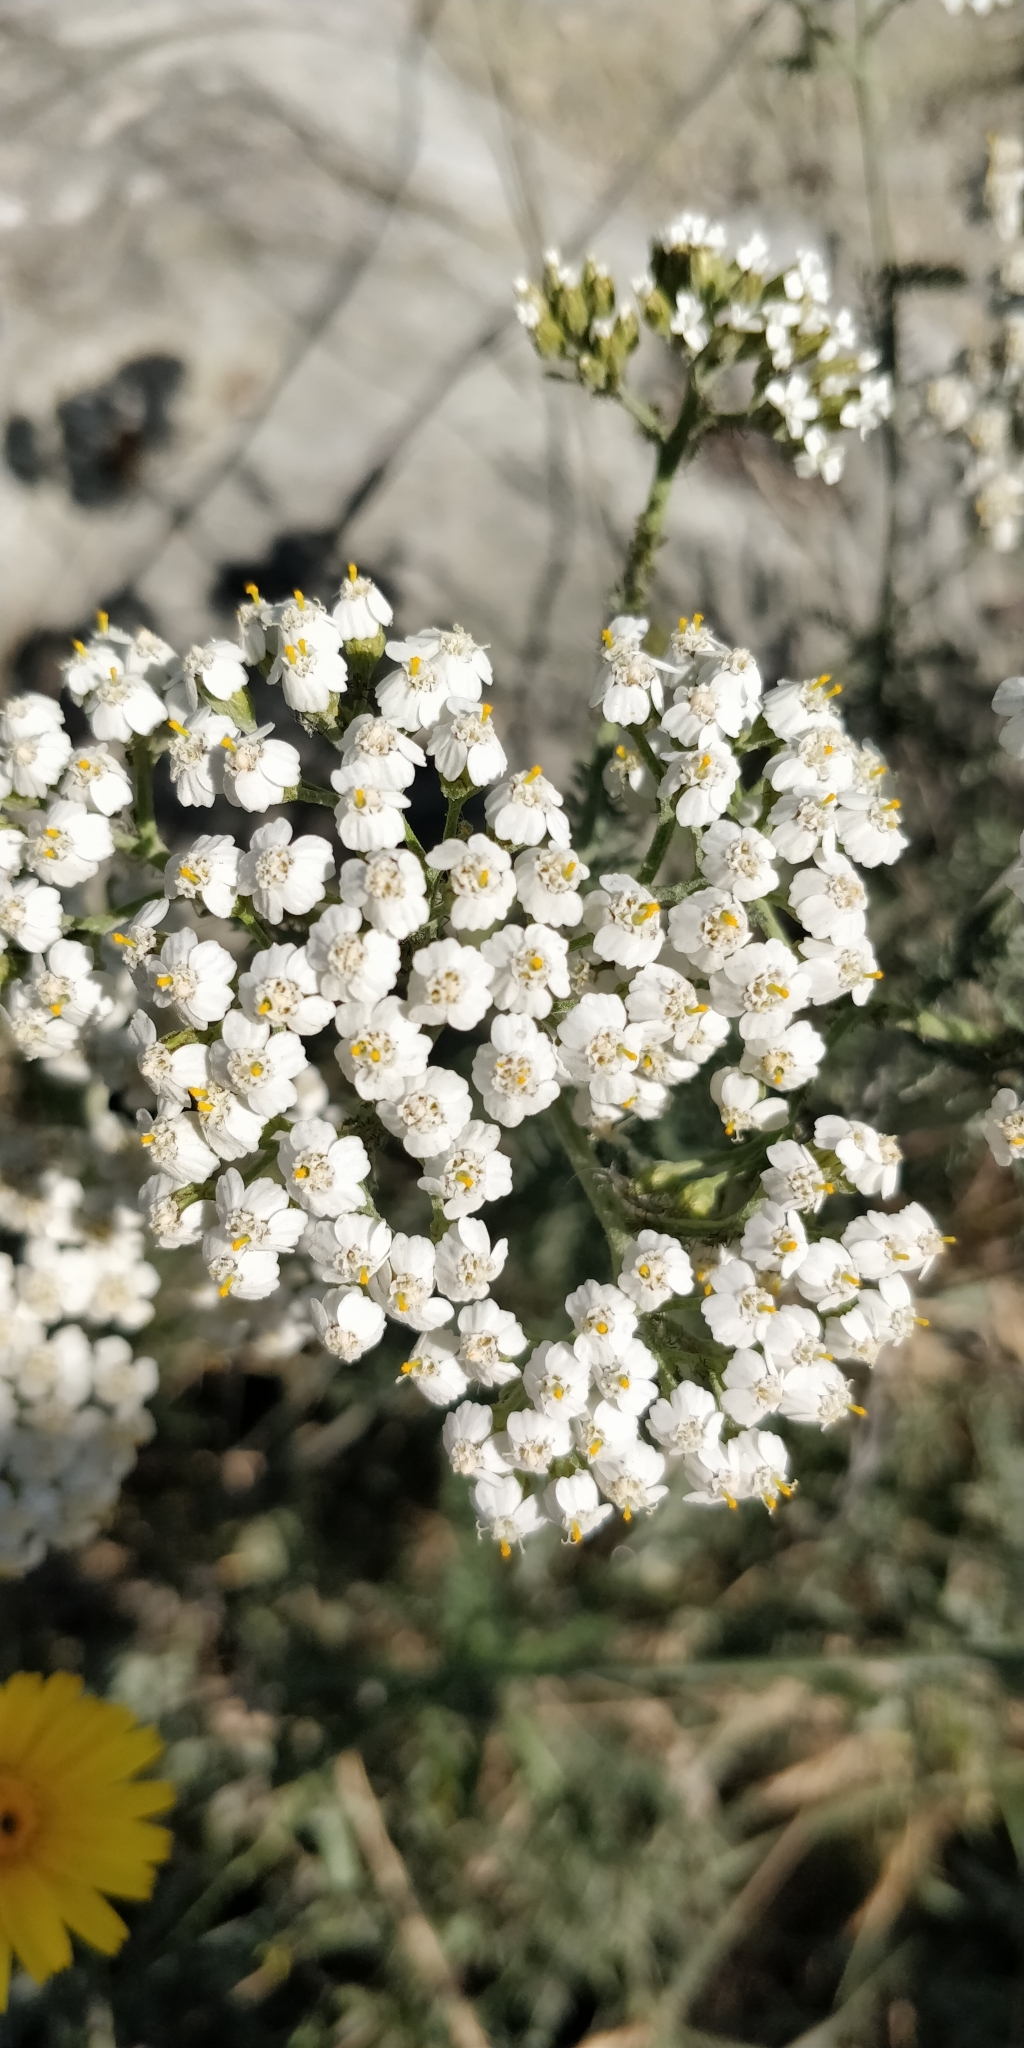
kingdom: Plantae
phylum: Tracheophyta
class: Magnoliopsida
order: Asterales
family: Asteraceae
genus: Achillea
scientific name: Achillea millefolium
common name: Yarrow
